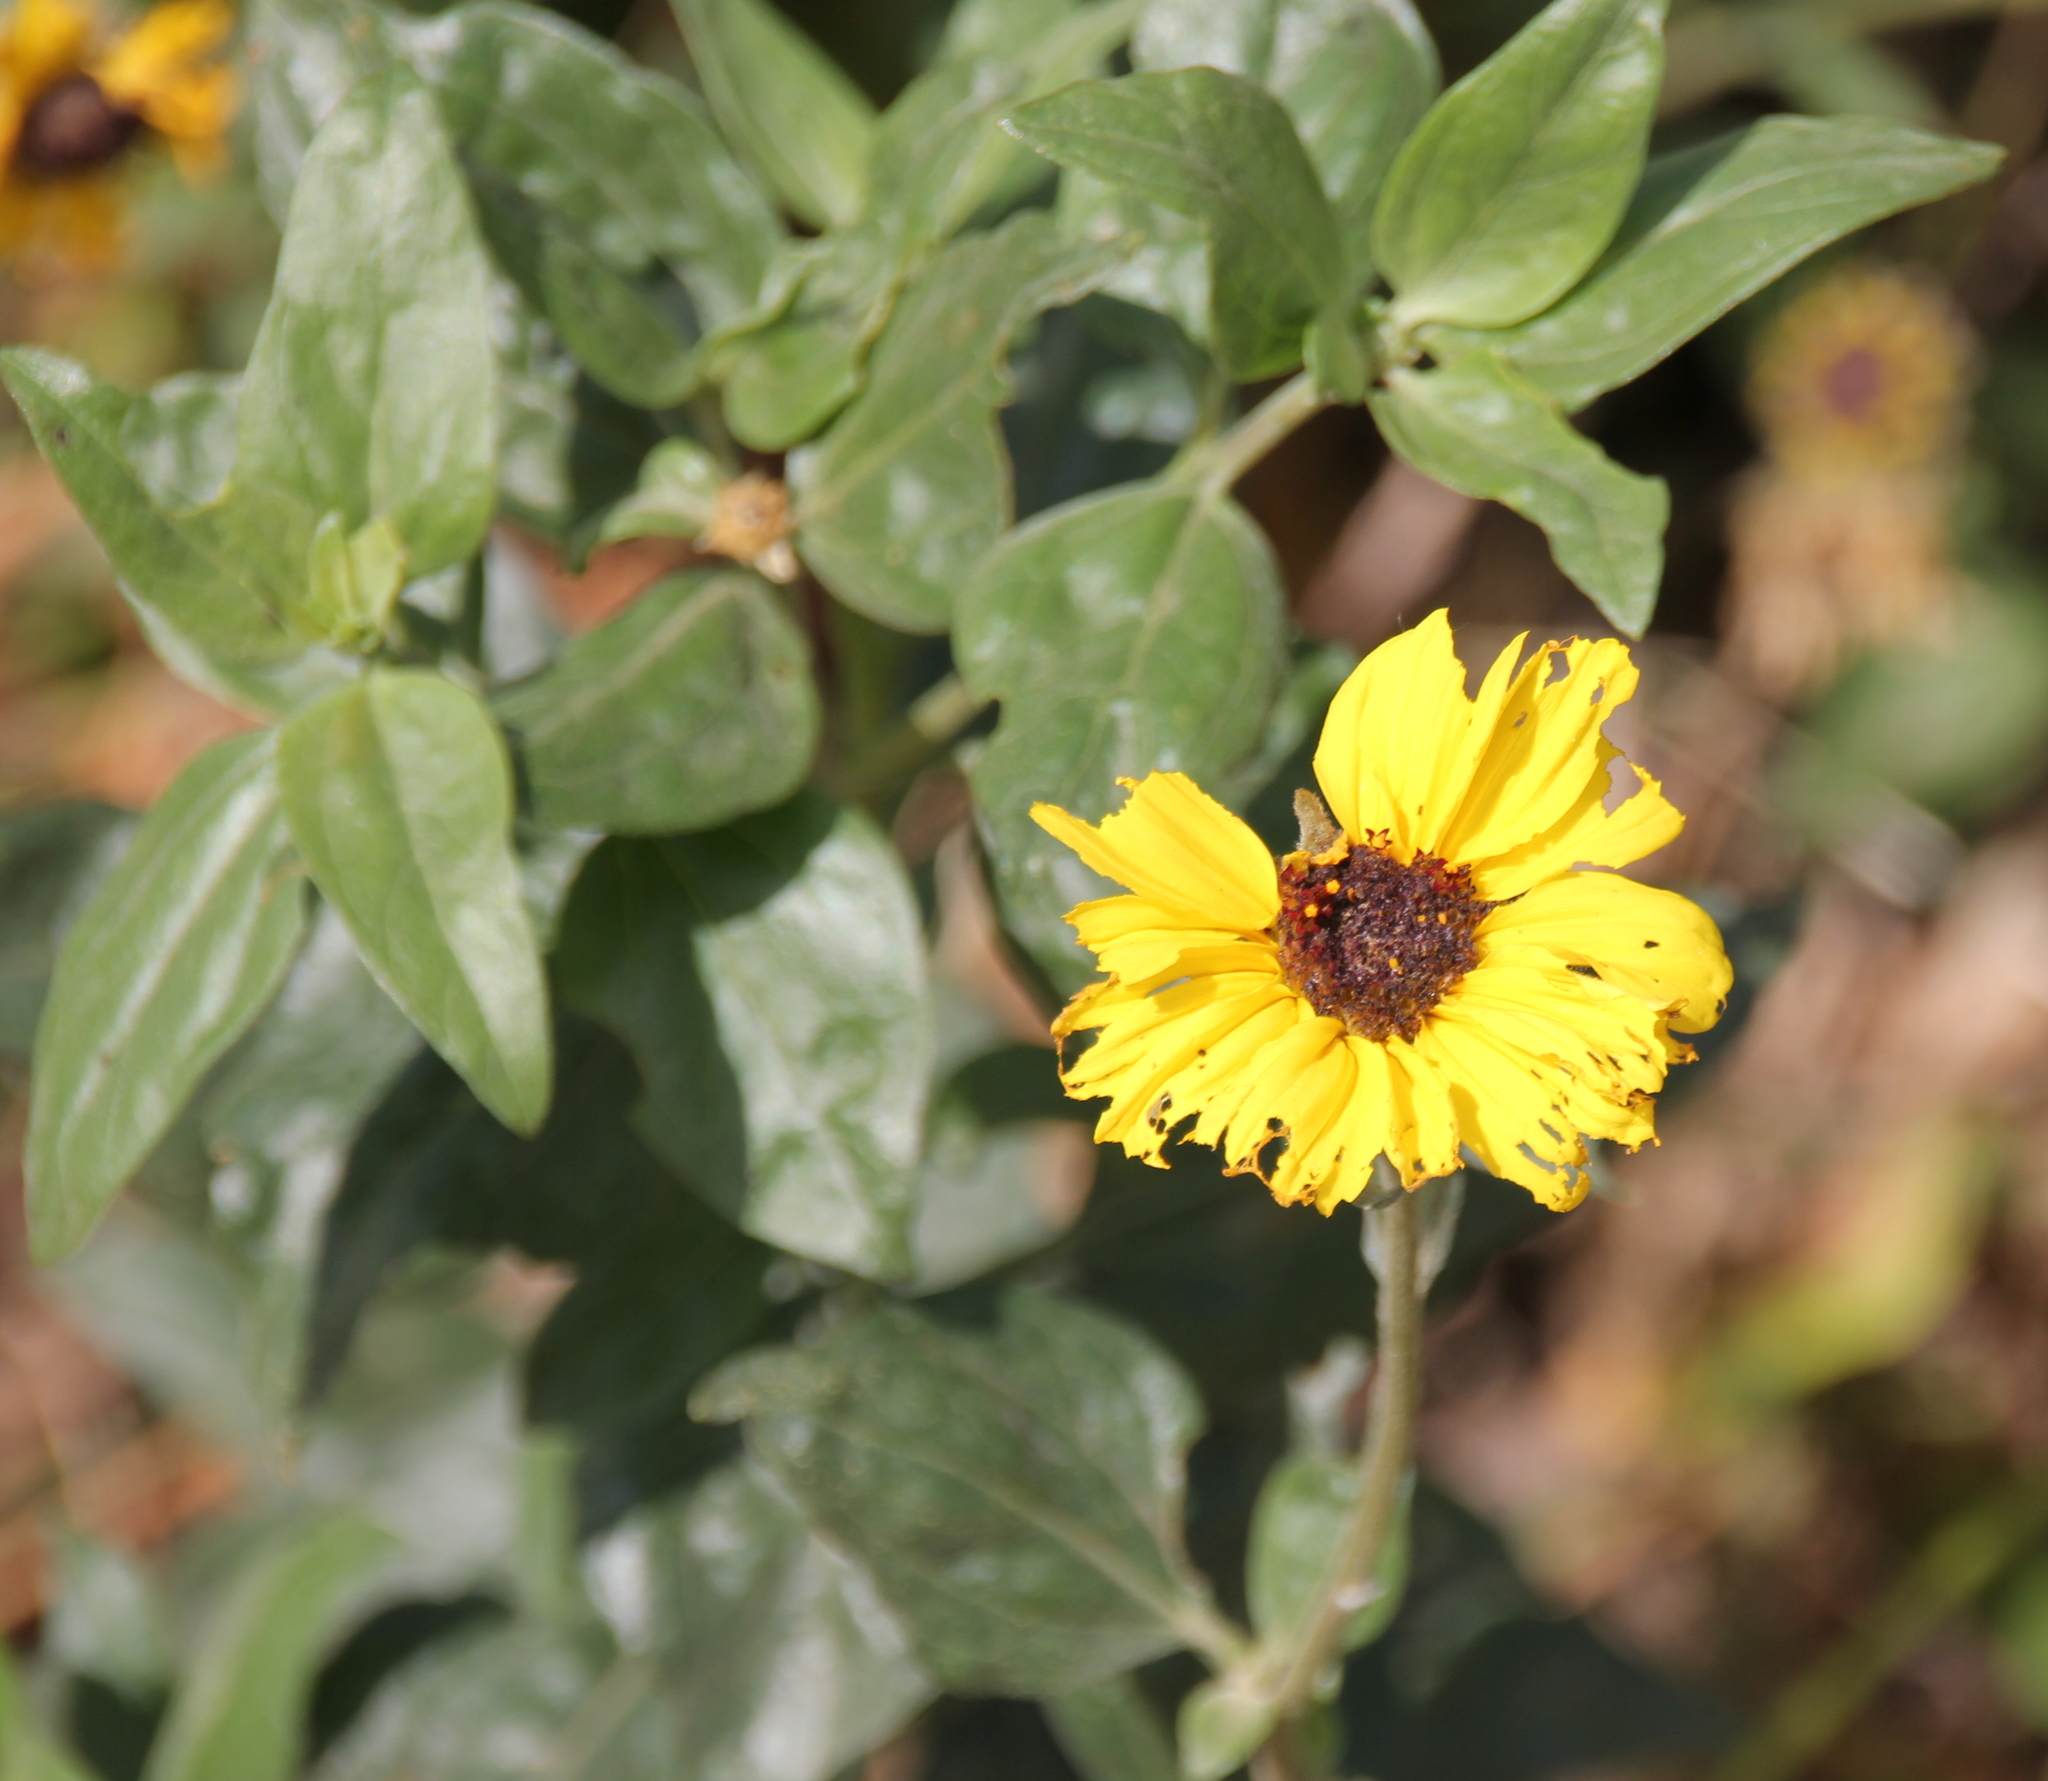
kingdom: Plantae
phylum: Tracheophyta
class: Magnoliopsida
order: Asterales
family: Asteraceae
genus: Encelia
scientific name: Encelia californica
